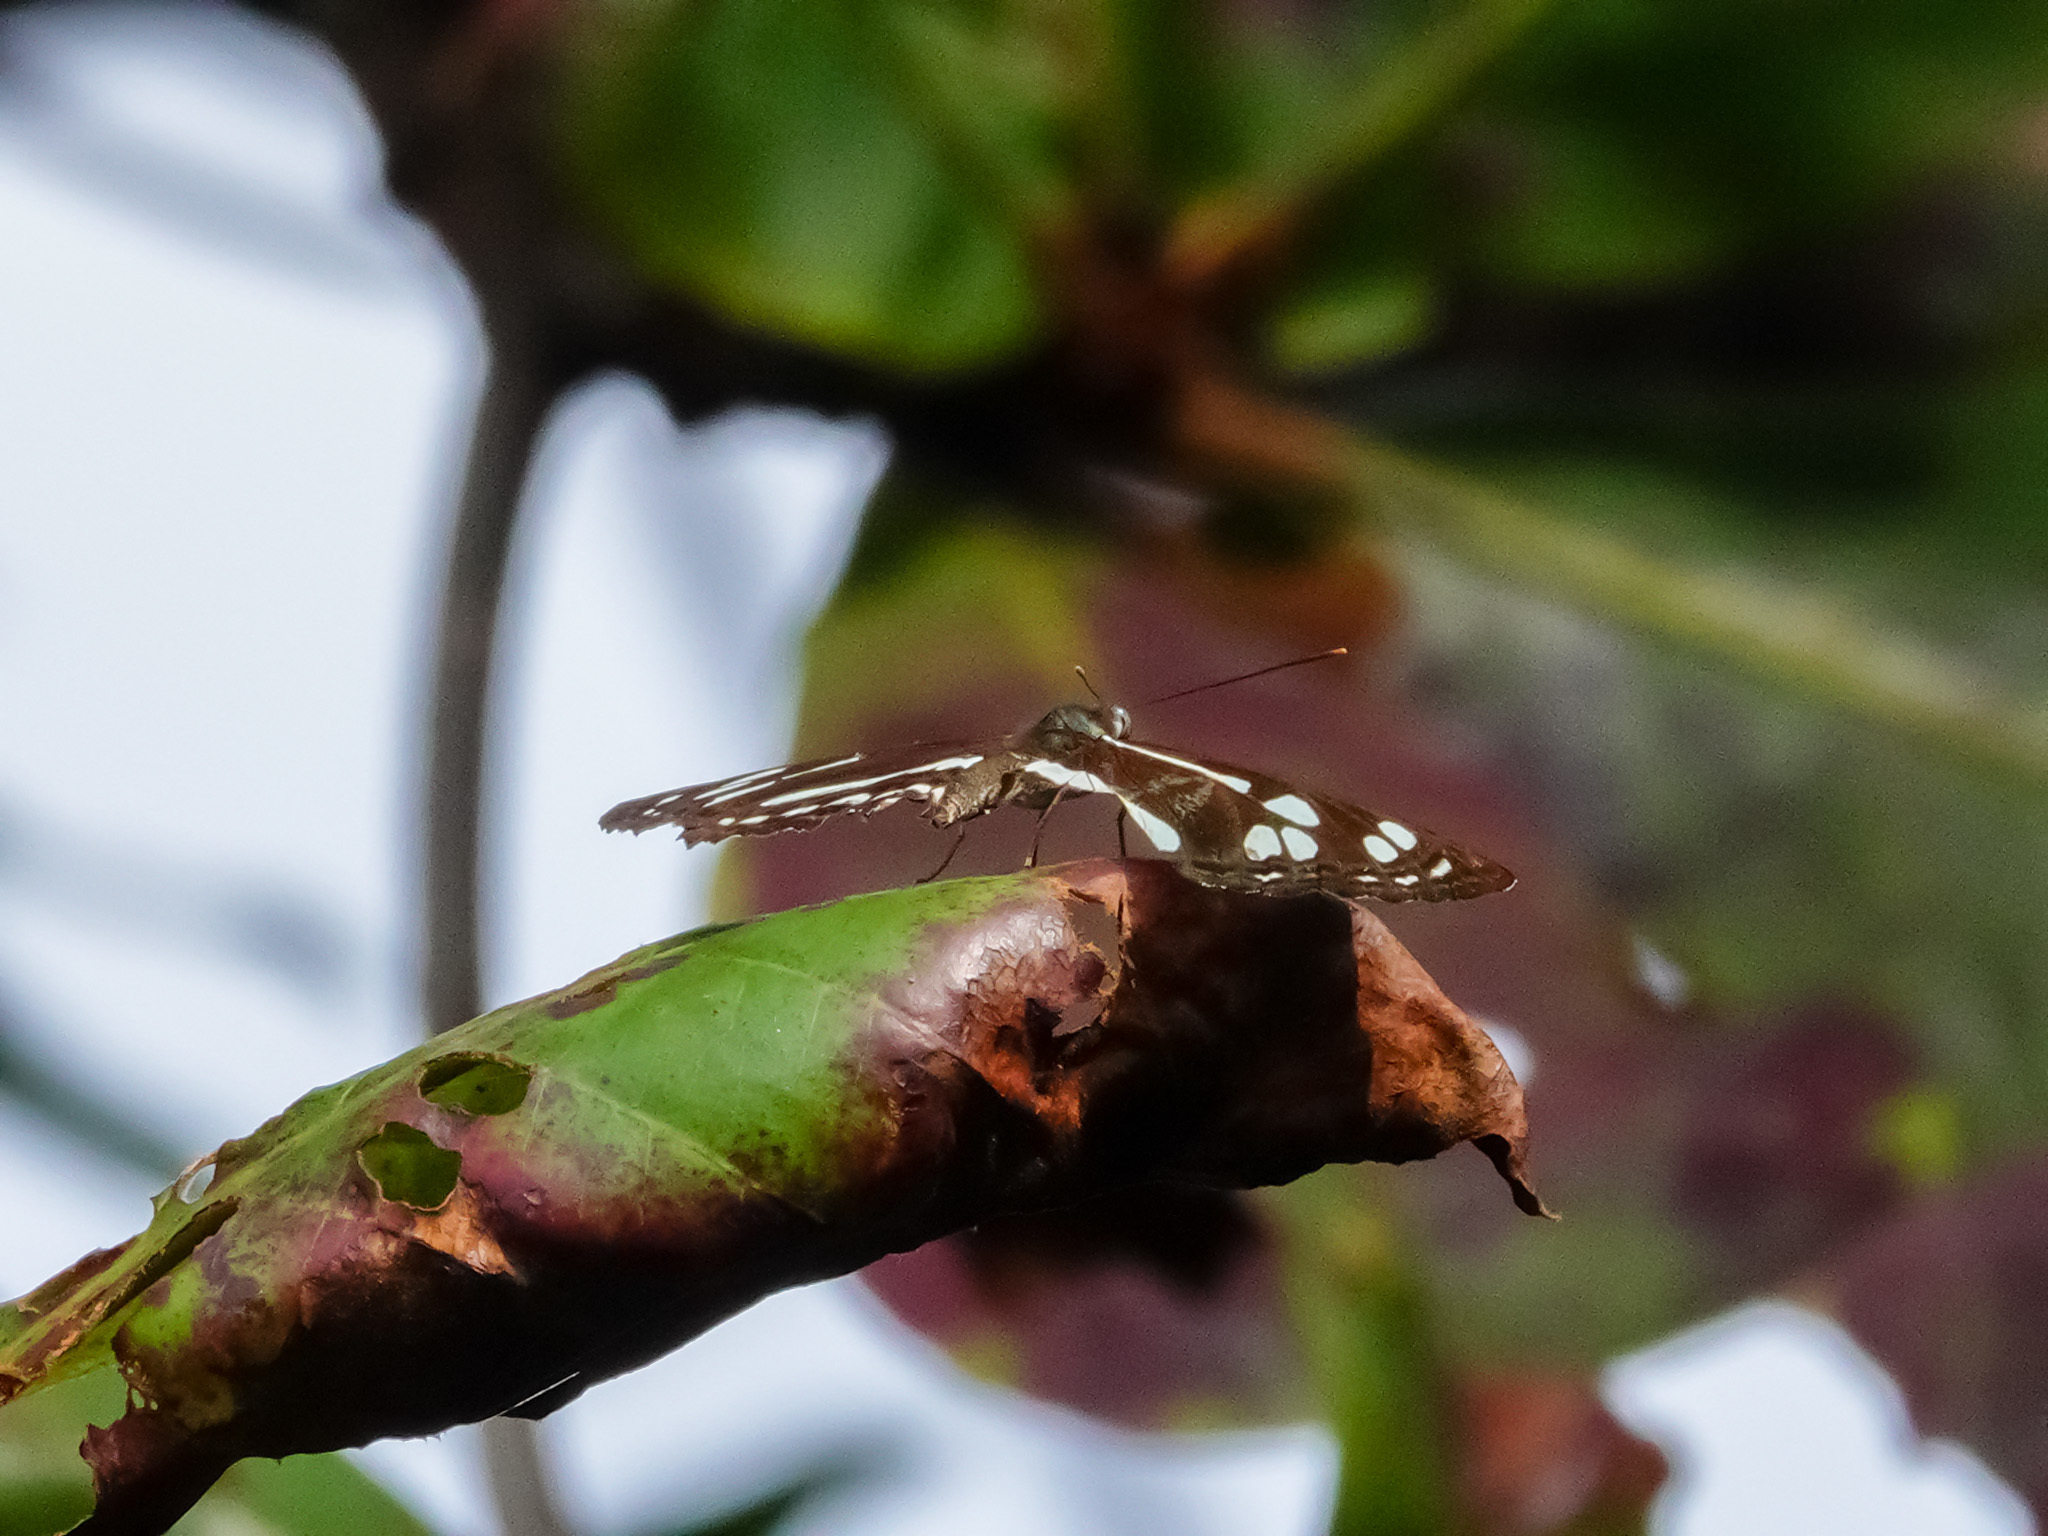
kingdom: Animalia
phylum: Arthropoda
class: Insecta
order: Lepidoptera
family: Nymphalidae
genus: Phaedyma
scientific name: Phaedyma columella
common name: Short banded sailer
